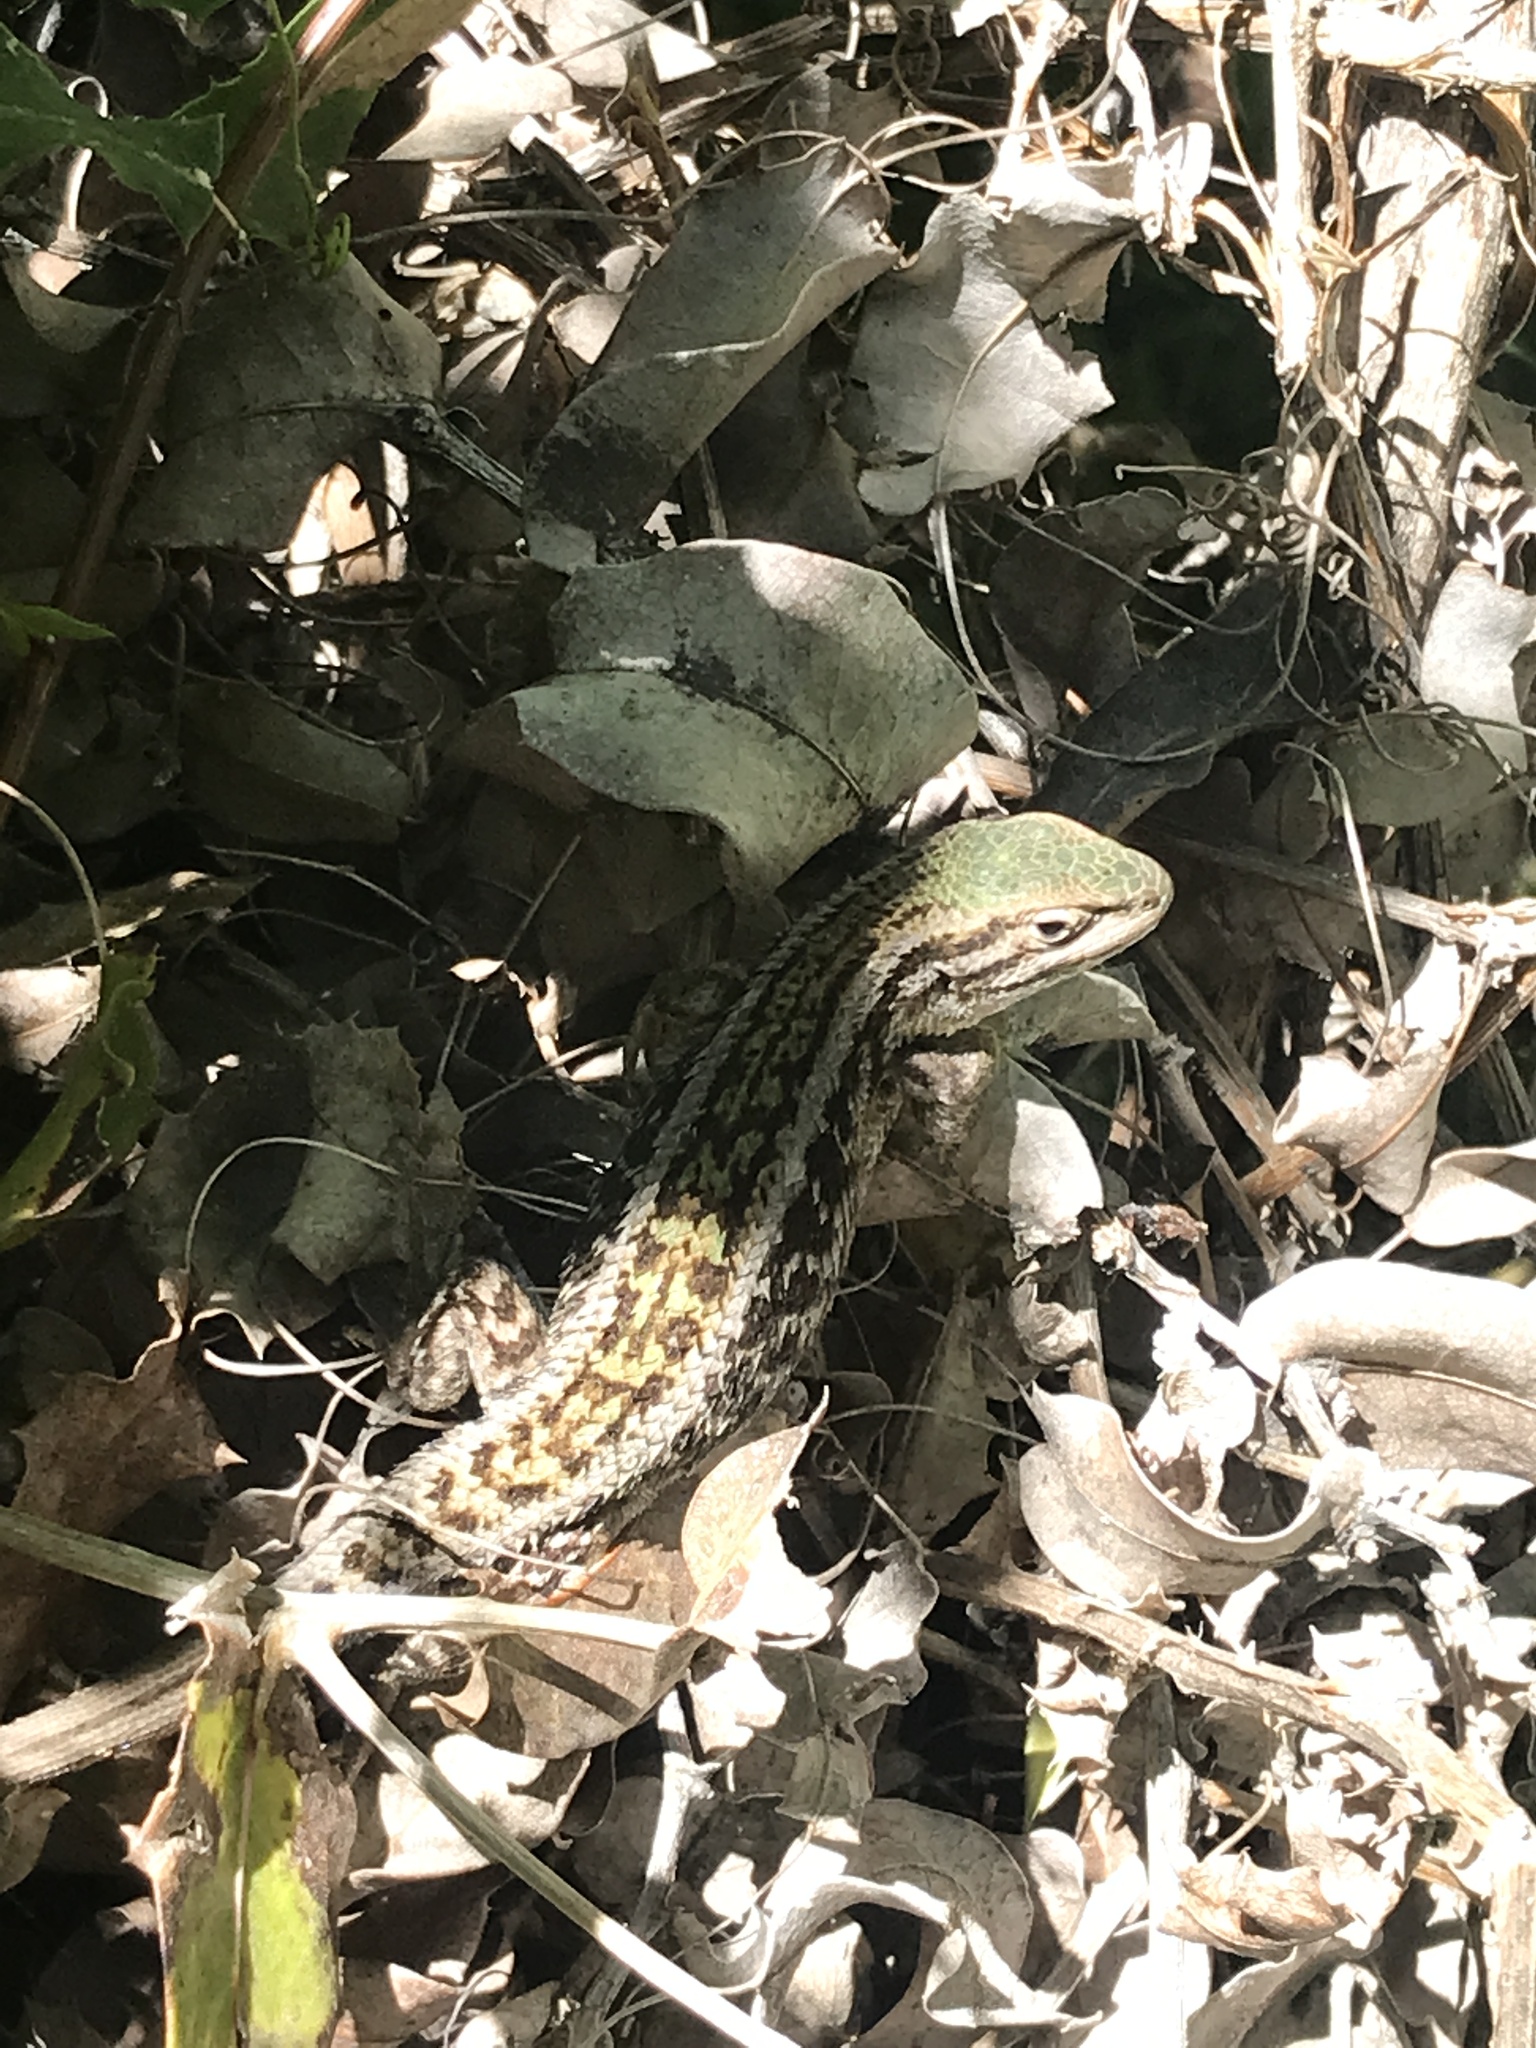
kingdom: Animalia
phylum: Chordata
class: Squamata
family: Liolaemidae
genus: Liolaemus
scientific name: Liolaemus chiliensis
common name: Chilean tree iguana
